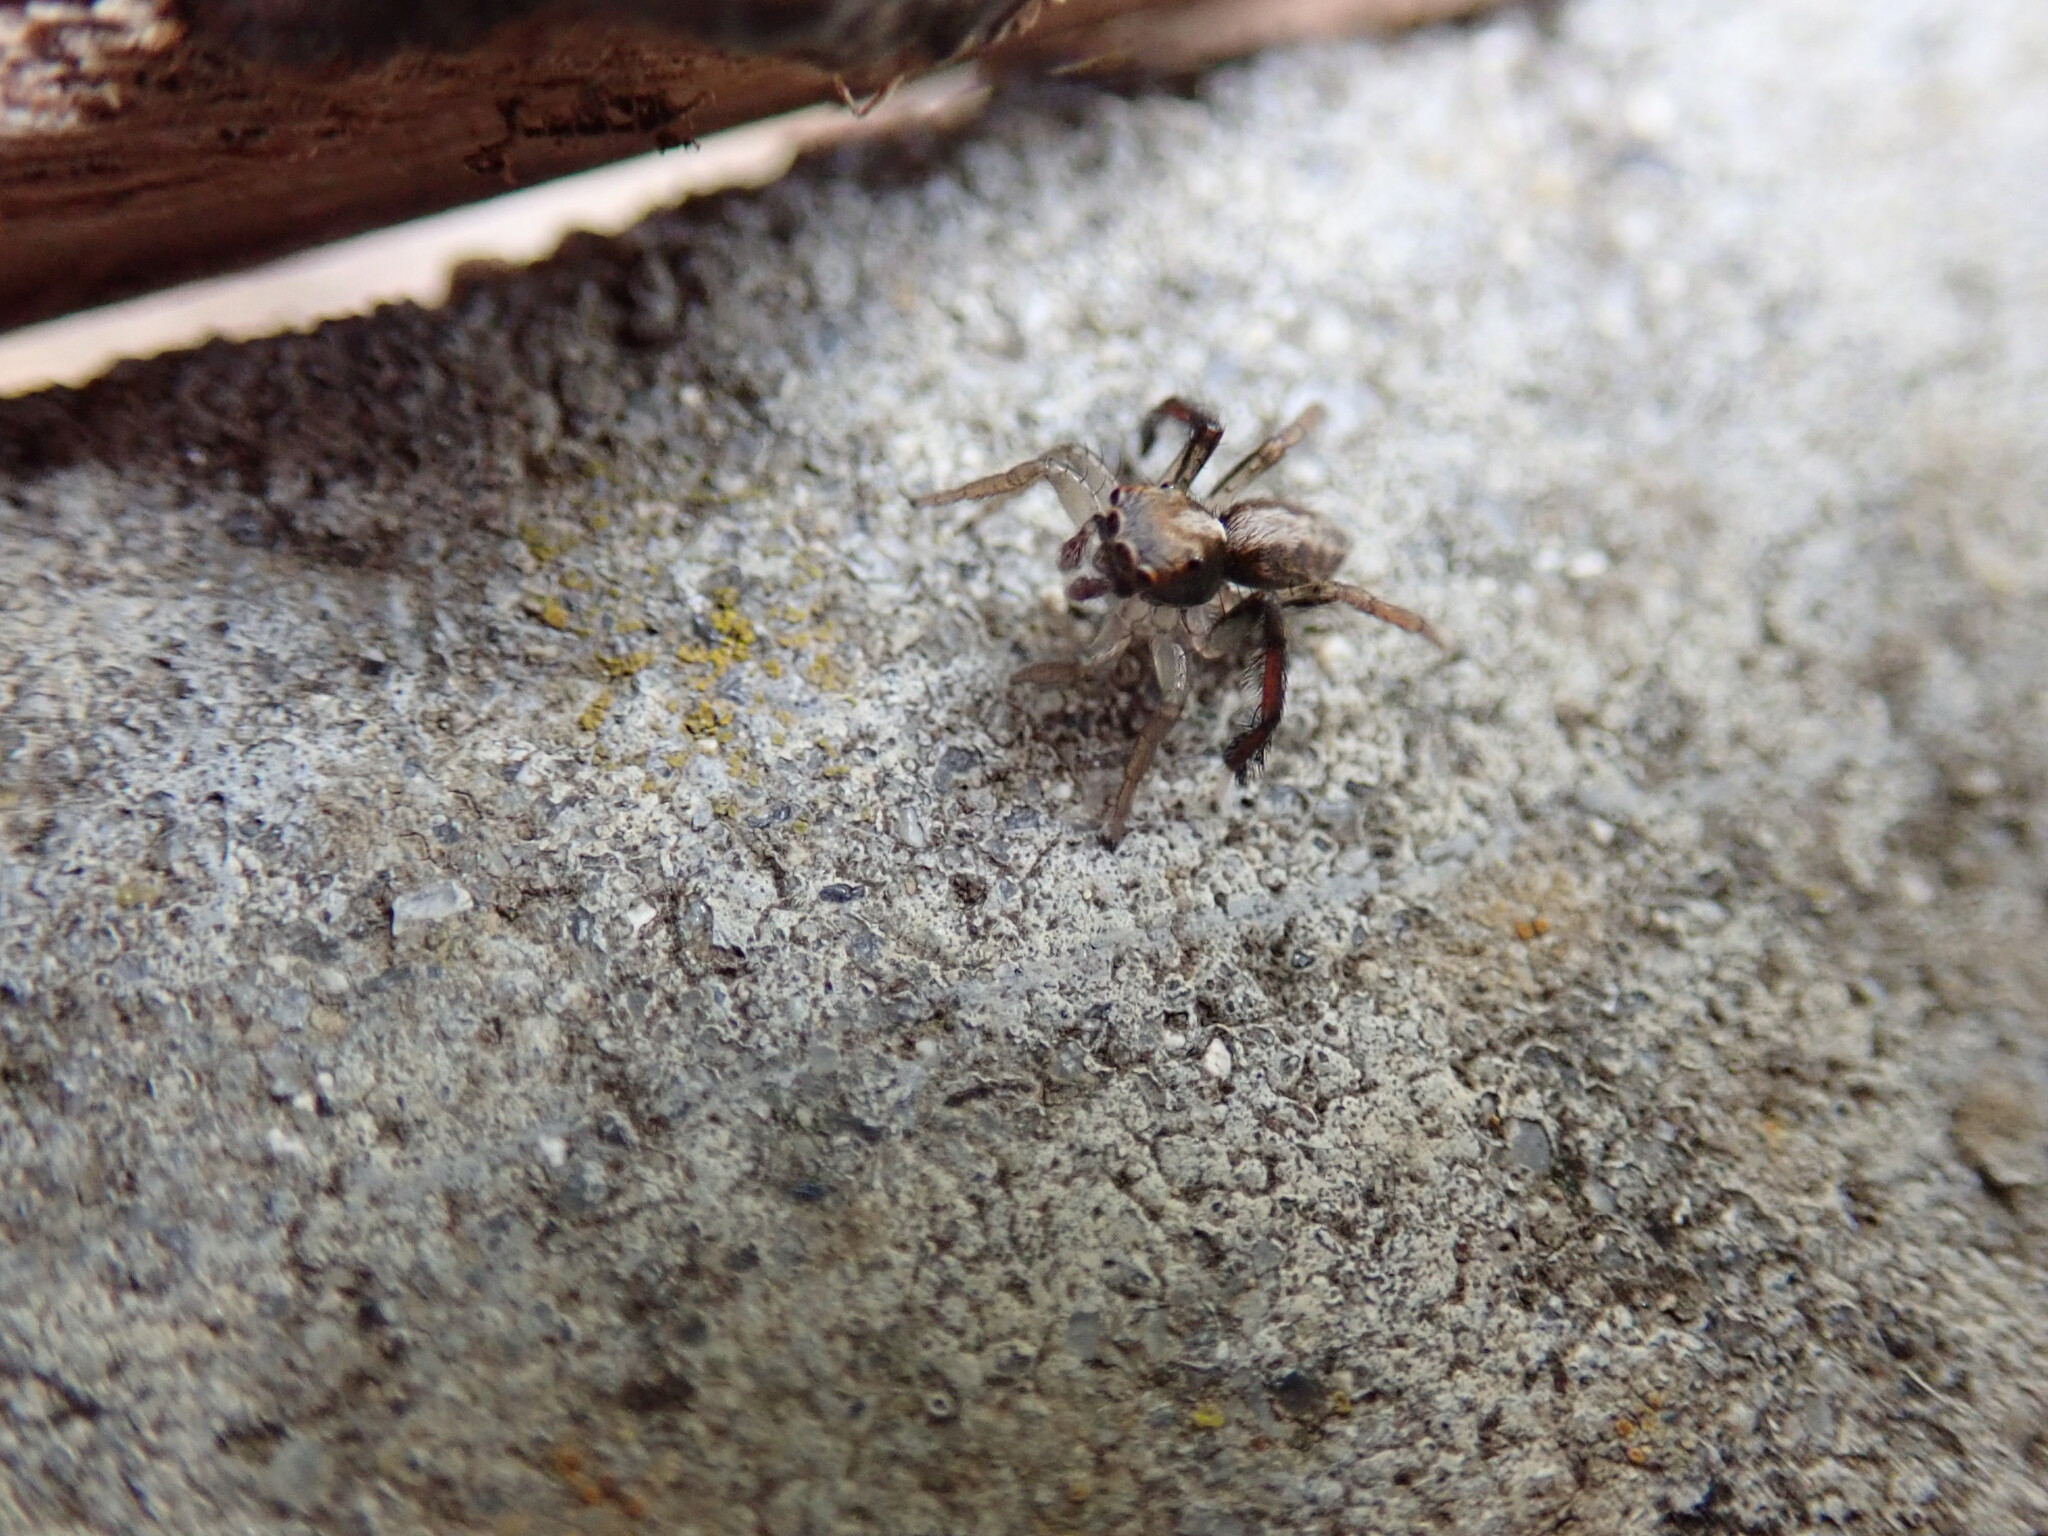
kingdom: Animalia
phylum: Arthropoda
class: Arachnida
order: Araneae
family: Salticidae
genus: Saitis
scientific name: Saitis tauricus
